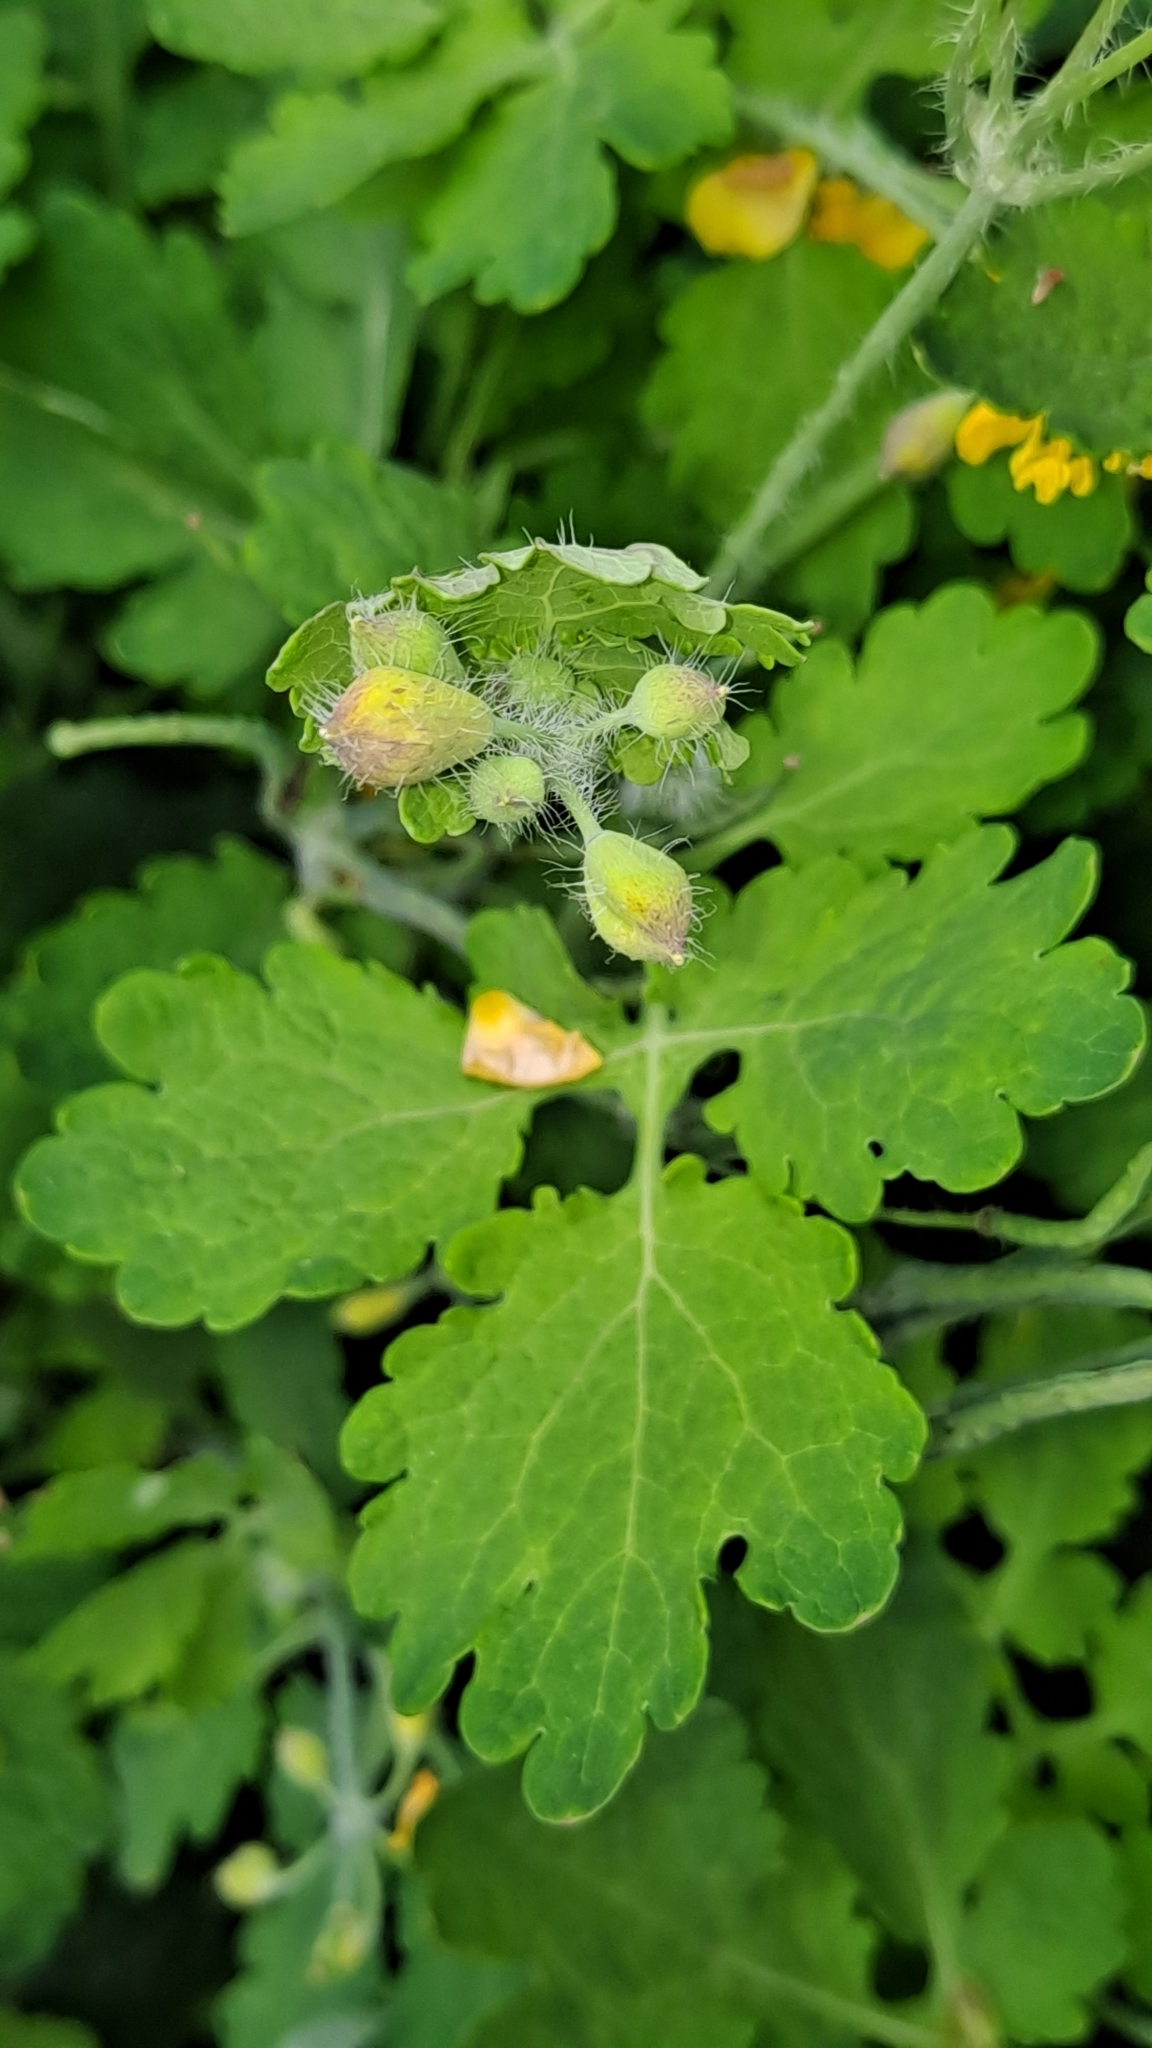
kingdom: Plantae
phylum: Tracheophyta
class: Magnoliopsida
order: Ranunculales
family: Papaveraceae
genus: Chelidonium
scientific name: Chelidonium majus
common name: Greater celandine
